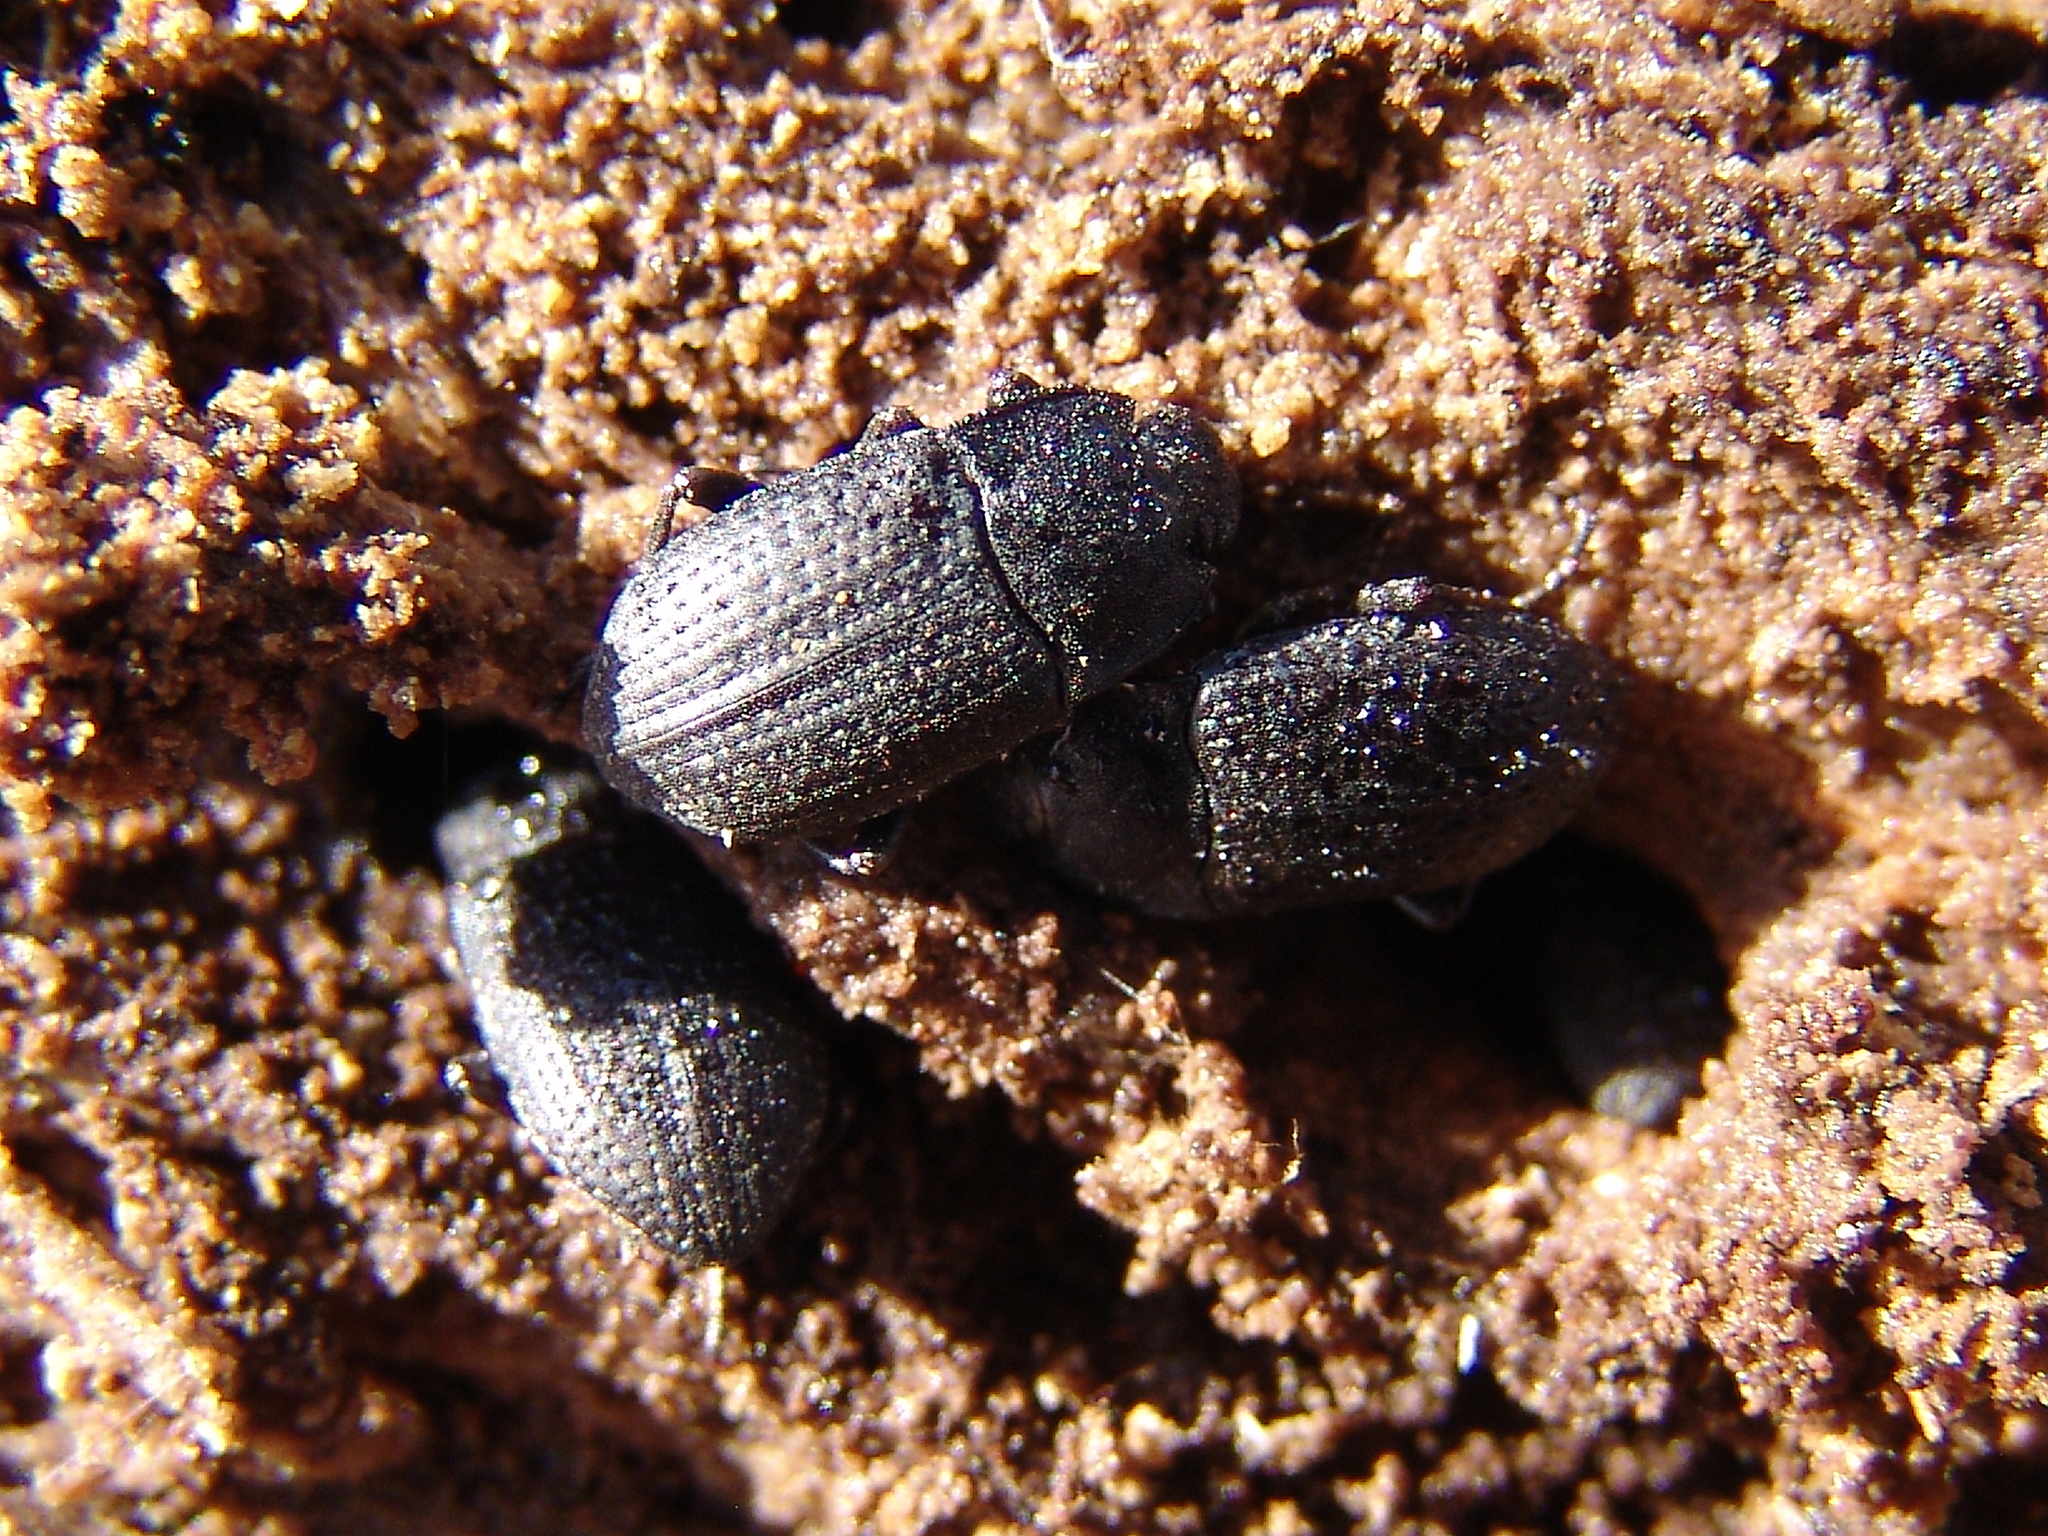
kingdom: Animalia
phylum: Arthropoda
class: Insecta
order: Coleoptera
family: Tenebrionidae
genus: Asiopus
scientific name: Asiopus
